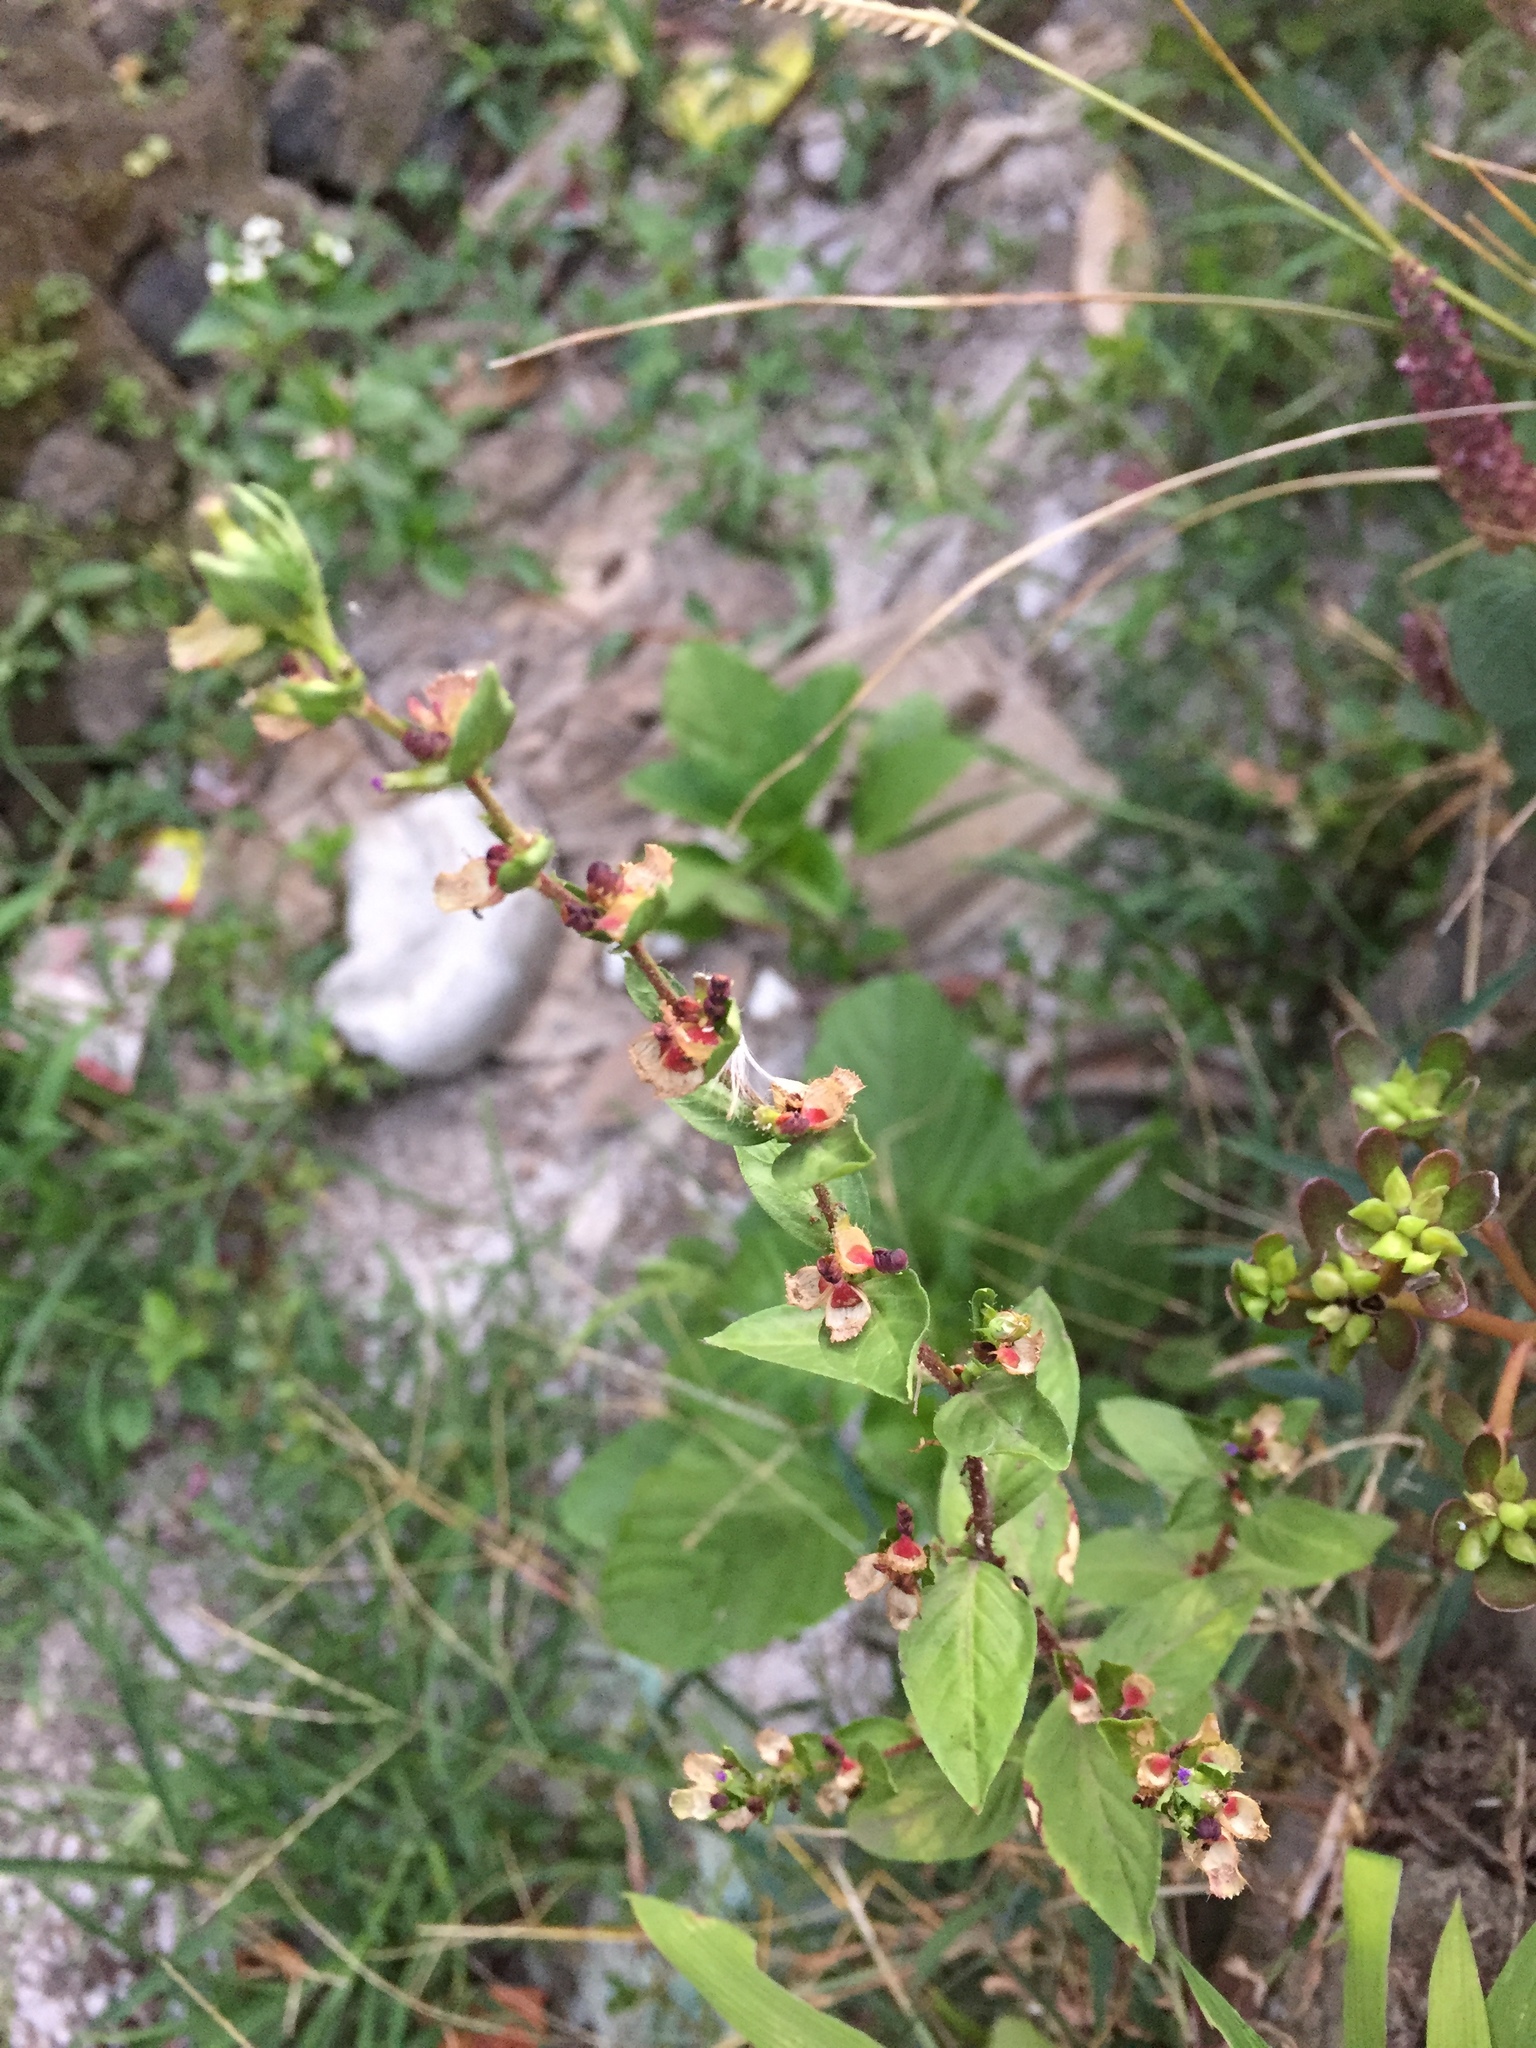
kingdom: Plantae
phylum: Tracheophyta
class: Magnoliopsida
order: Myrtales
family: Lythraceae
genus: Cuphea
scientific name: Cuphea carthagenensis
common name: Colombian waxweed
